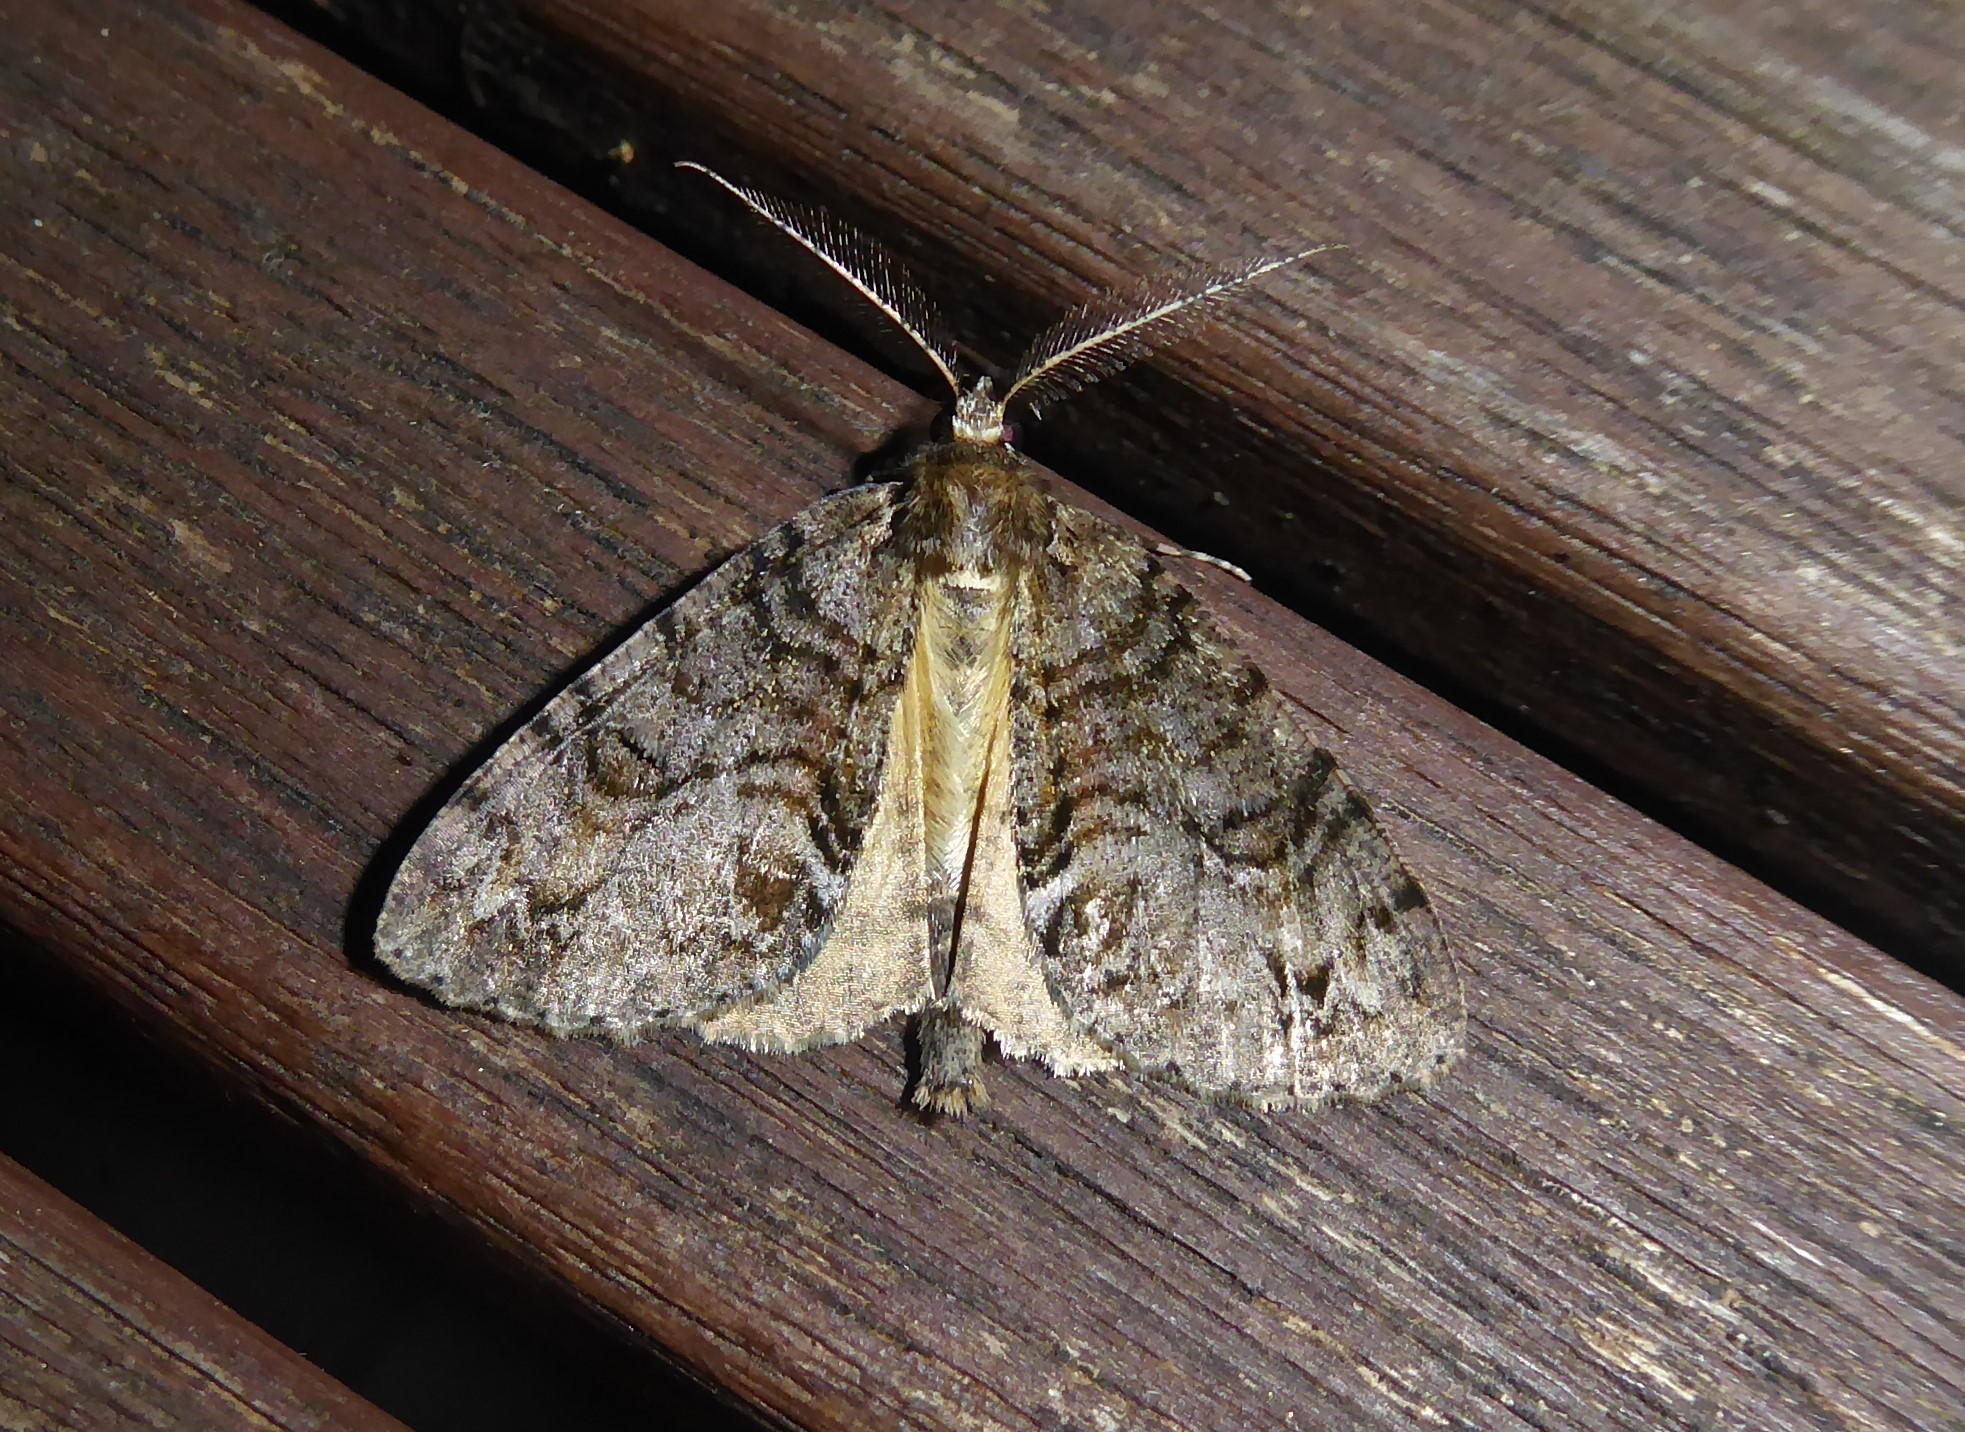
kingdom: Animalia
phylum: Arthropoda
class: Insecta
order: Lepidoptera
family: Geometridae
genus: Pseudocoremia
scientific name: Pseudocoremia suavis
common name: Common forest looper
